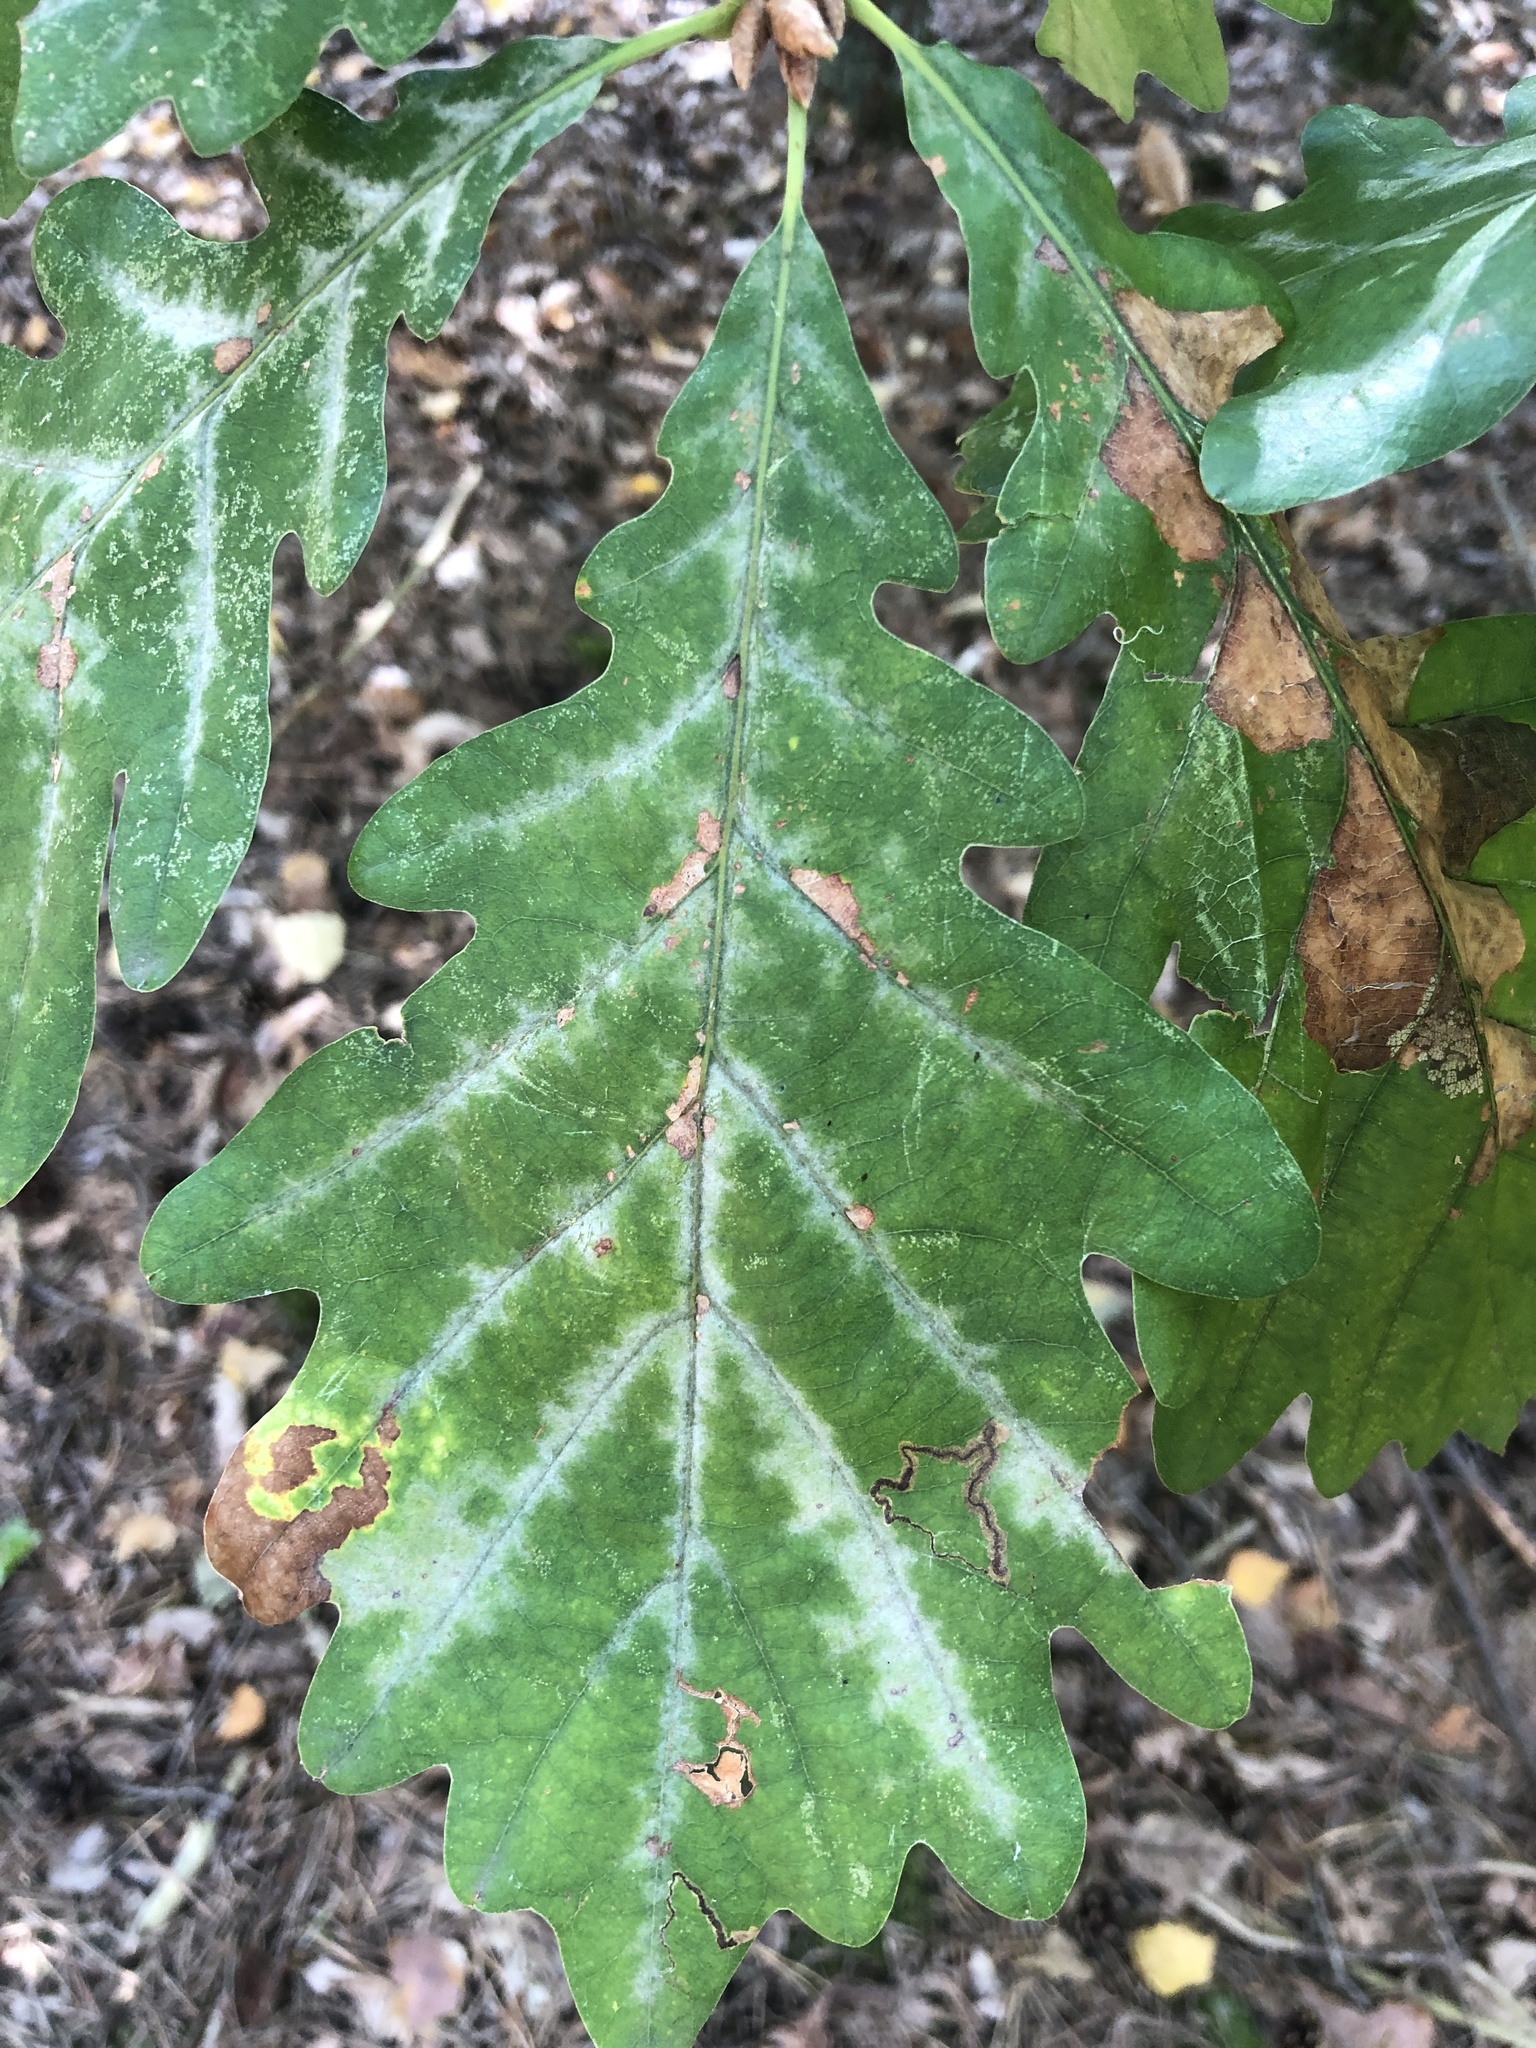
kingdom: Plantae
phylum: Tracheophyta
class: Magnoliopsida
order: Fagales
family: Fagaceae
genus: Quercus
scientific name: Quercus petraea
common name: Sessile oak
